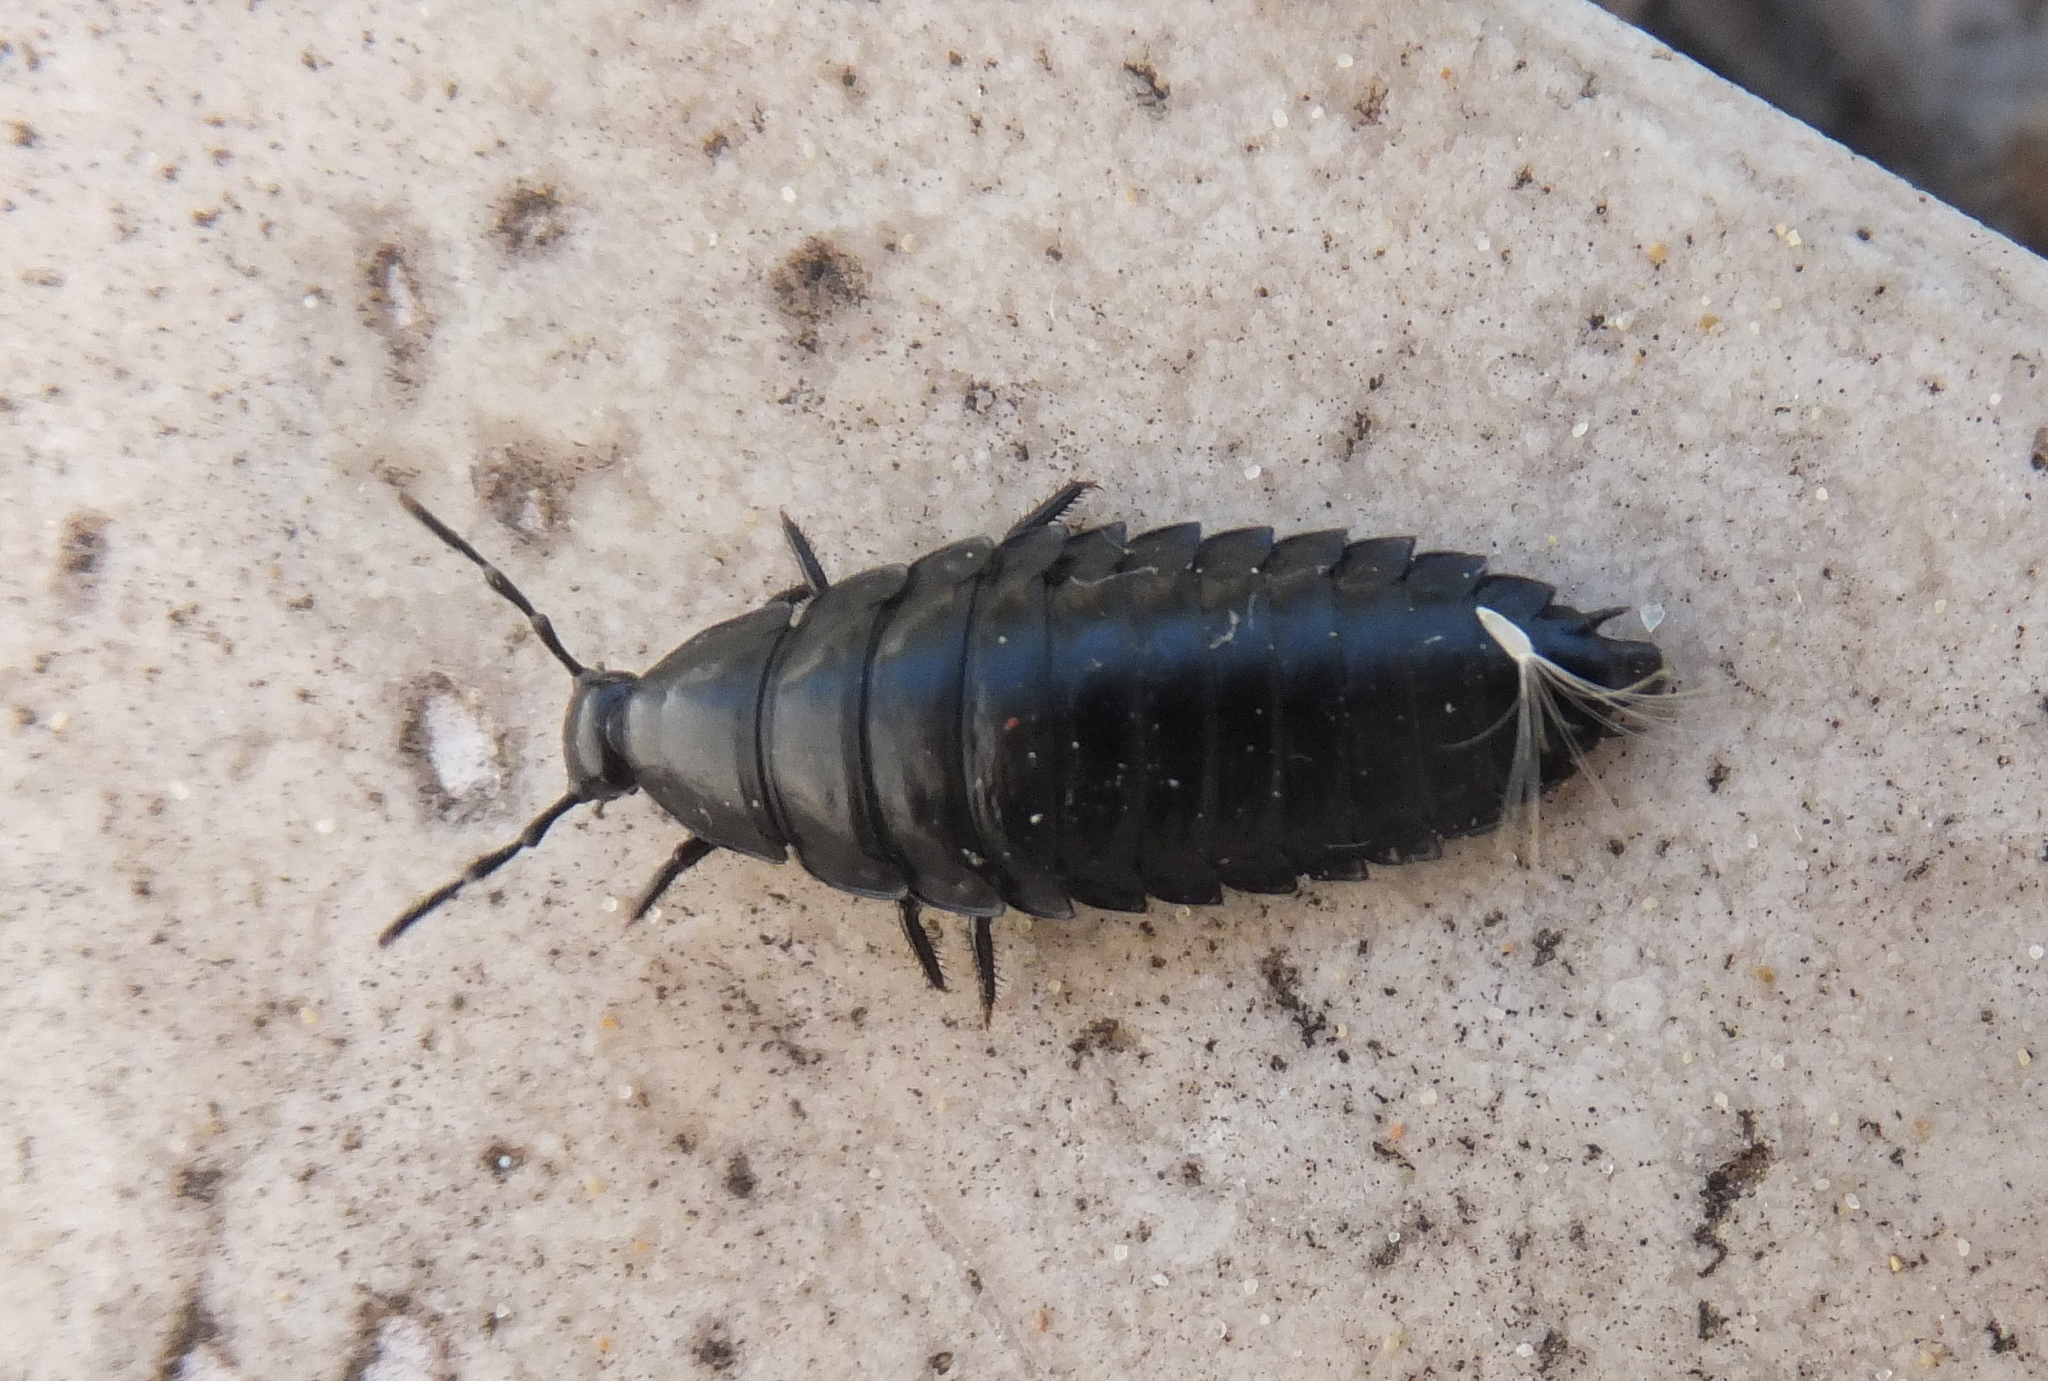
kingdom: Animalia
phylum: Arthropoda
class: Insecta
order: Coleoptera
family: Staphylinidae
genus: Silpha
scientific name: Silpha laevigata
